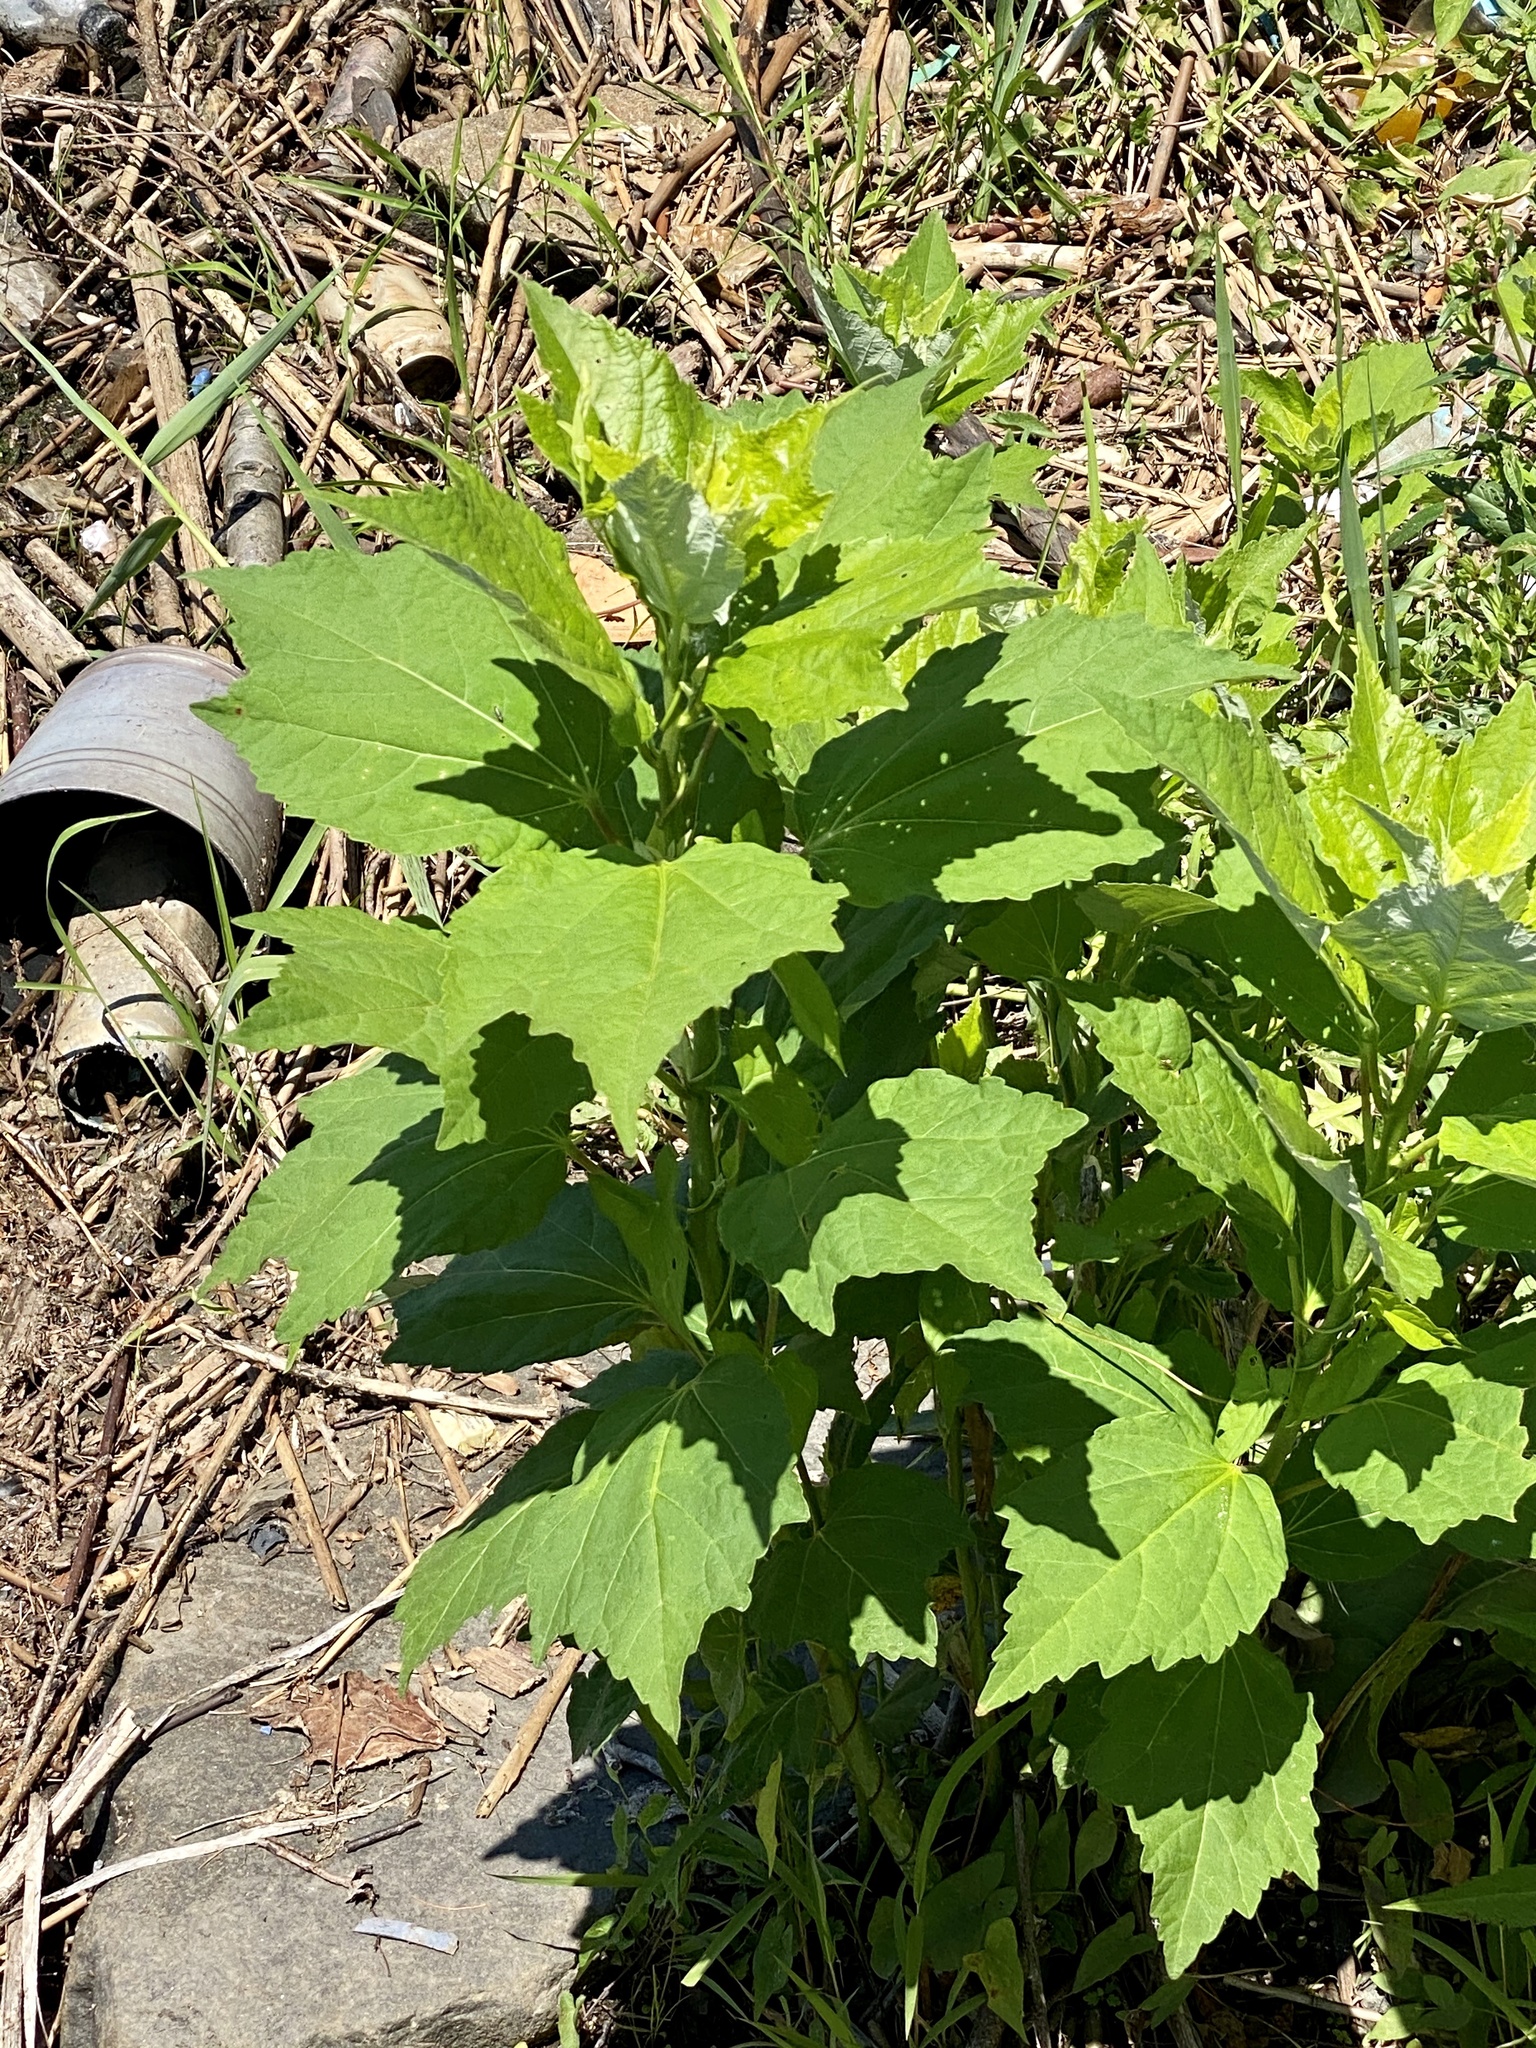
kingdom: Plantae
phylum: Tracheophyta
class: Magnoliopsida
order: Malvales
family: Malvaceae
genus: Hibiscus
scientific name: Hibiscus moscheutos
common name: Common rose-mallow
